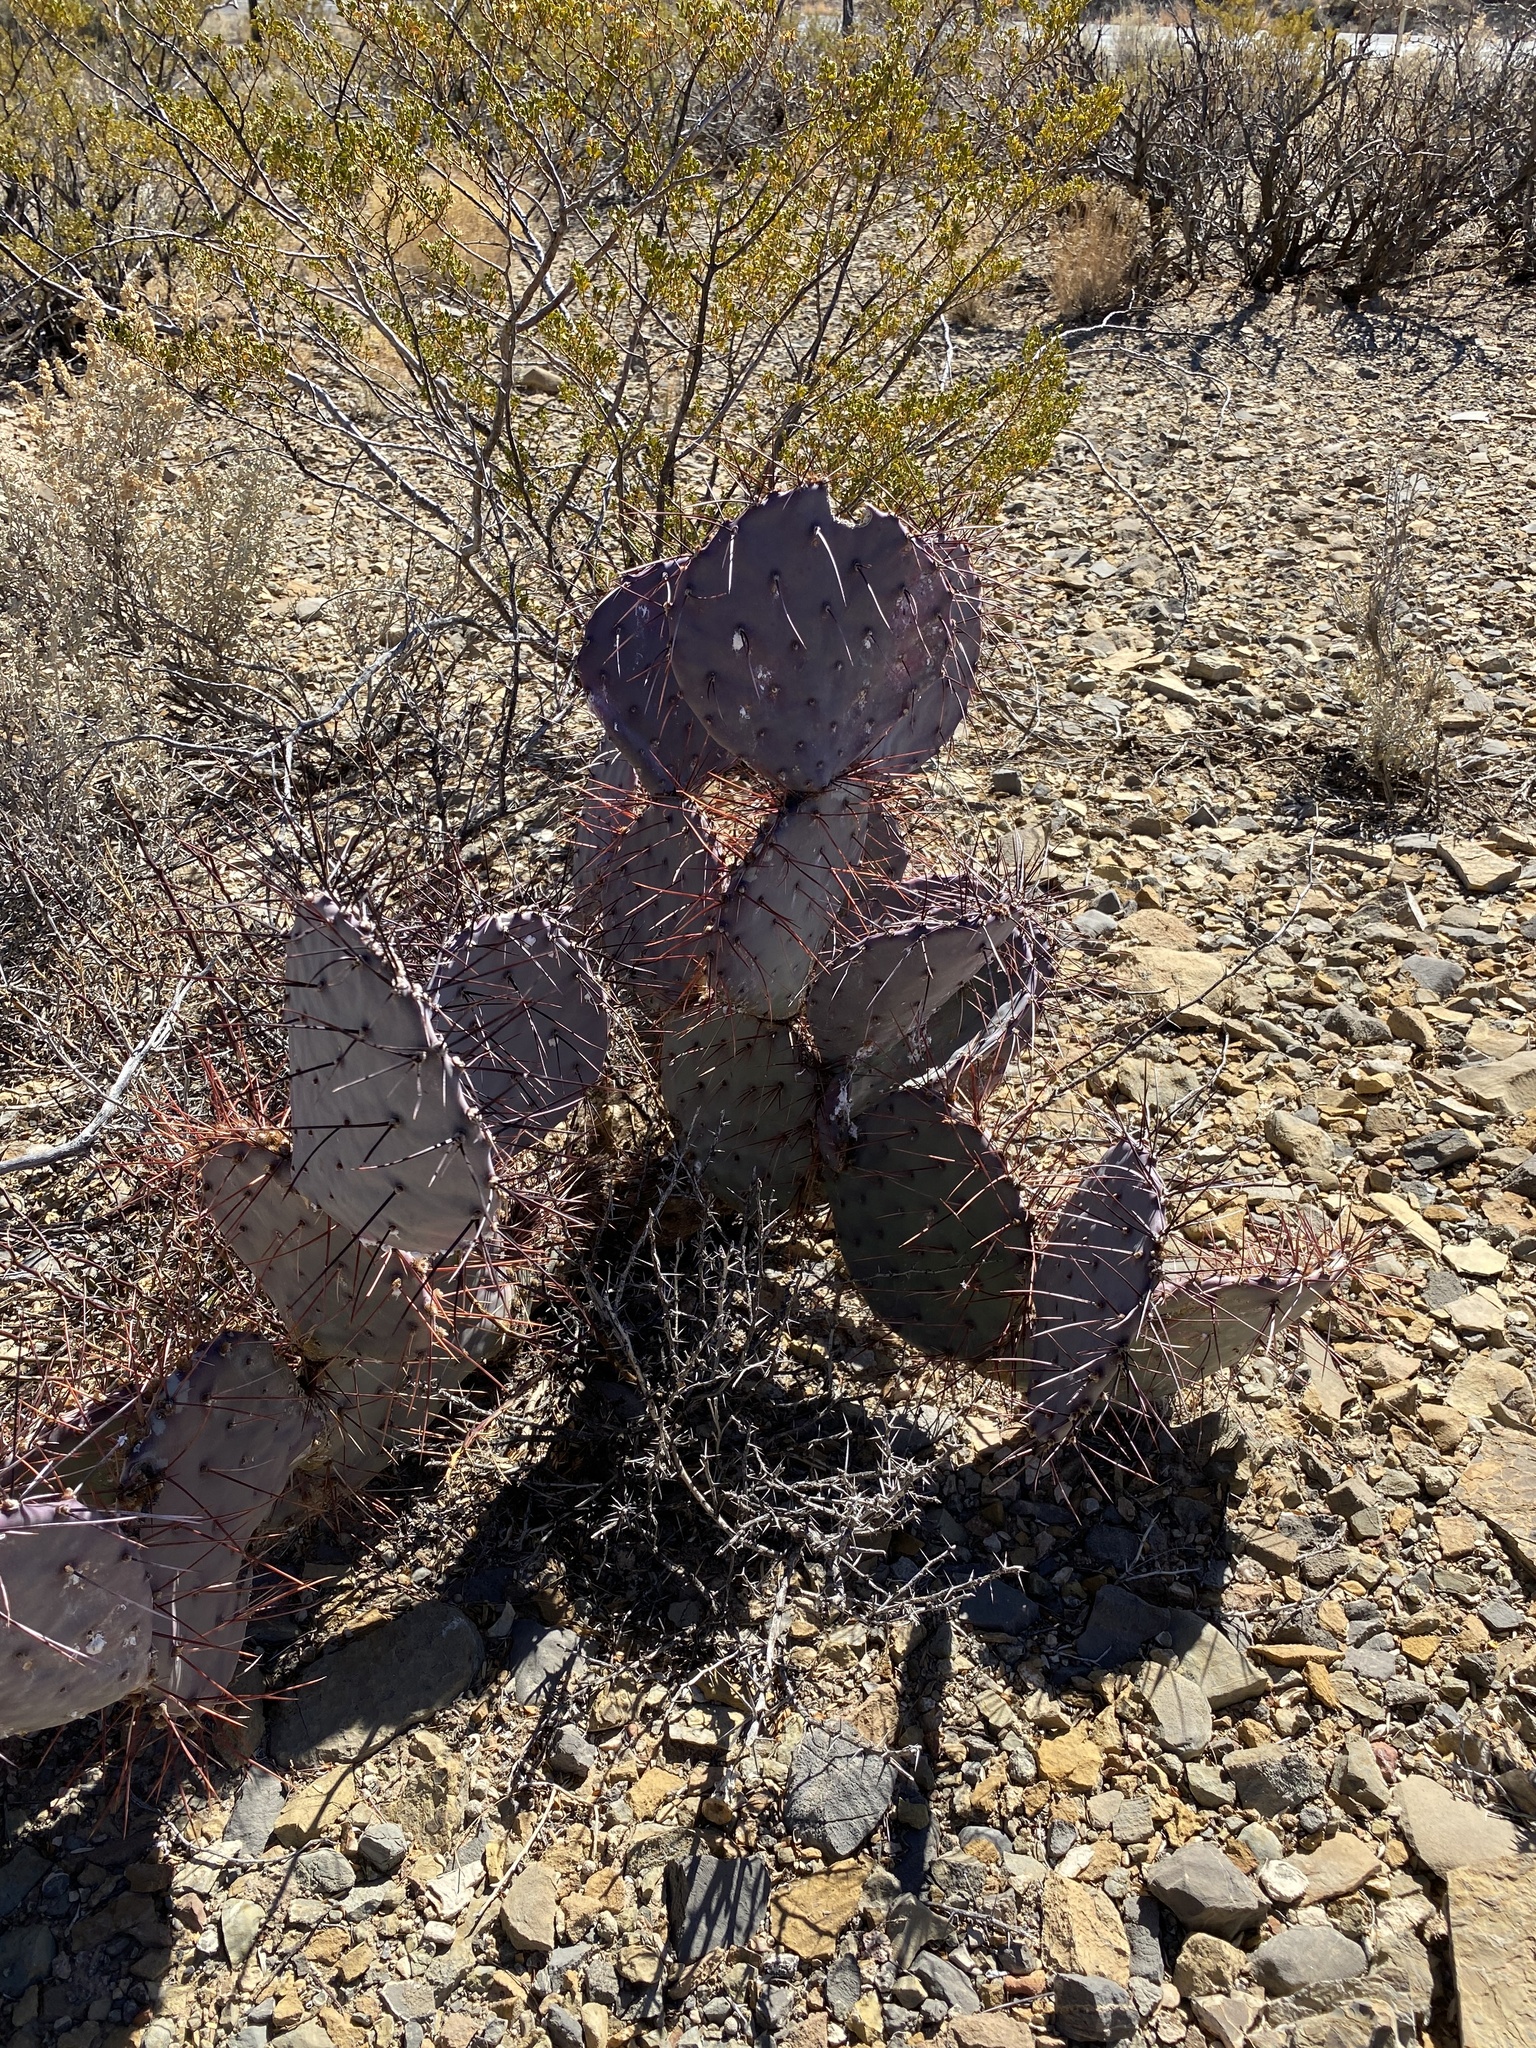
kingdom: Plantae
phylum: Tracheophyta
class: Magnoliopsida
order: Caryophyllales
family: Cactaceae
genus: Opuntia
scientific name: Opuntia macrocentra
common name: Purple prickly-pear
